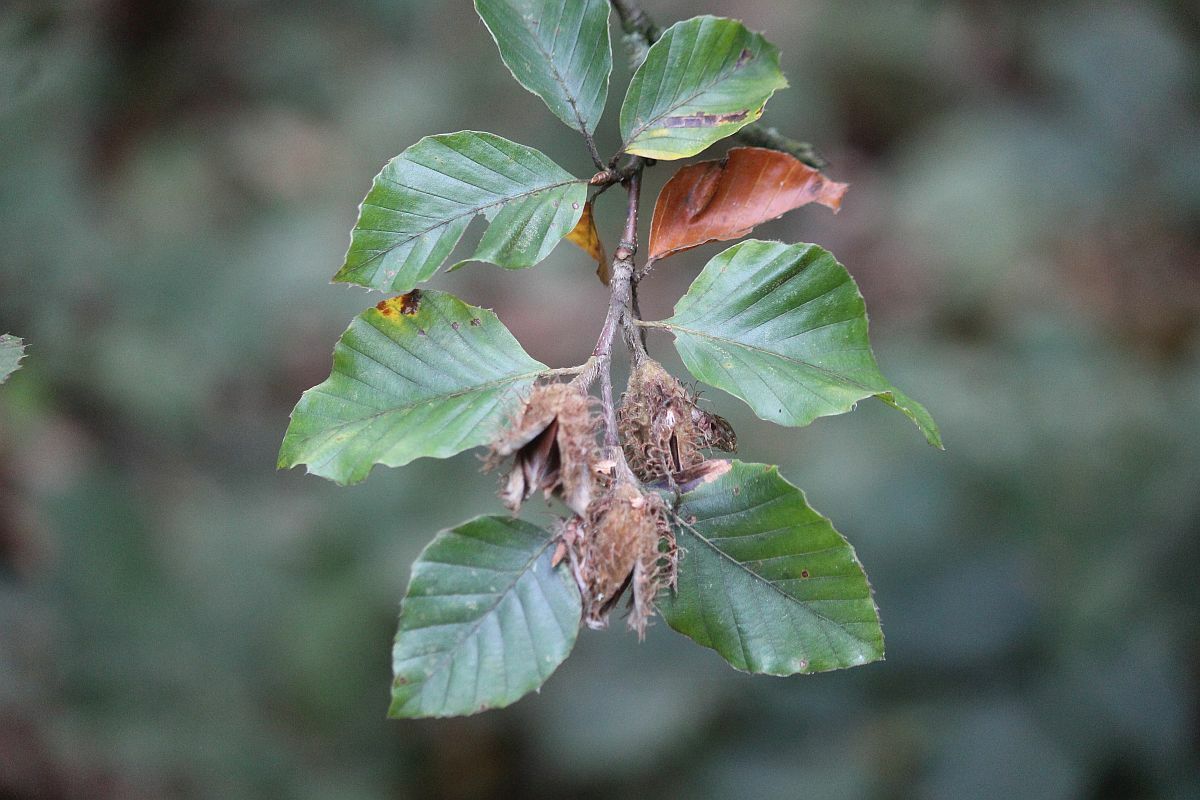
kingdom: Plantae
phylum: Tracheophyta
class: Magnoliopsida
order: Fagales
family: Fagaceae
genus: Fagus
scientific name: Fagus sylvatica
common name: Beech
